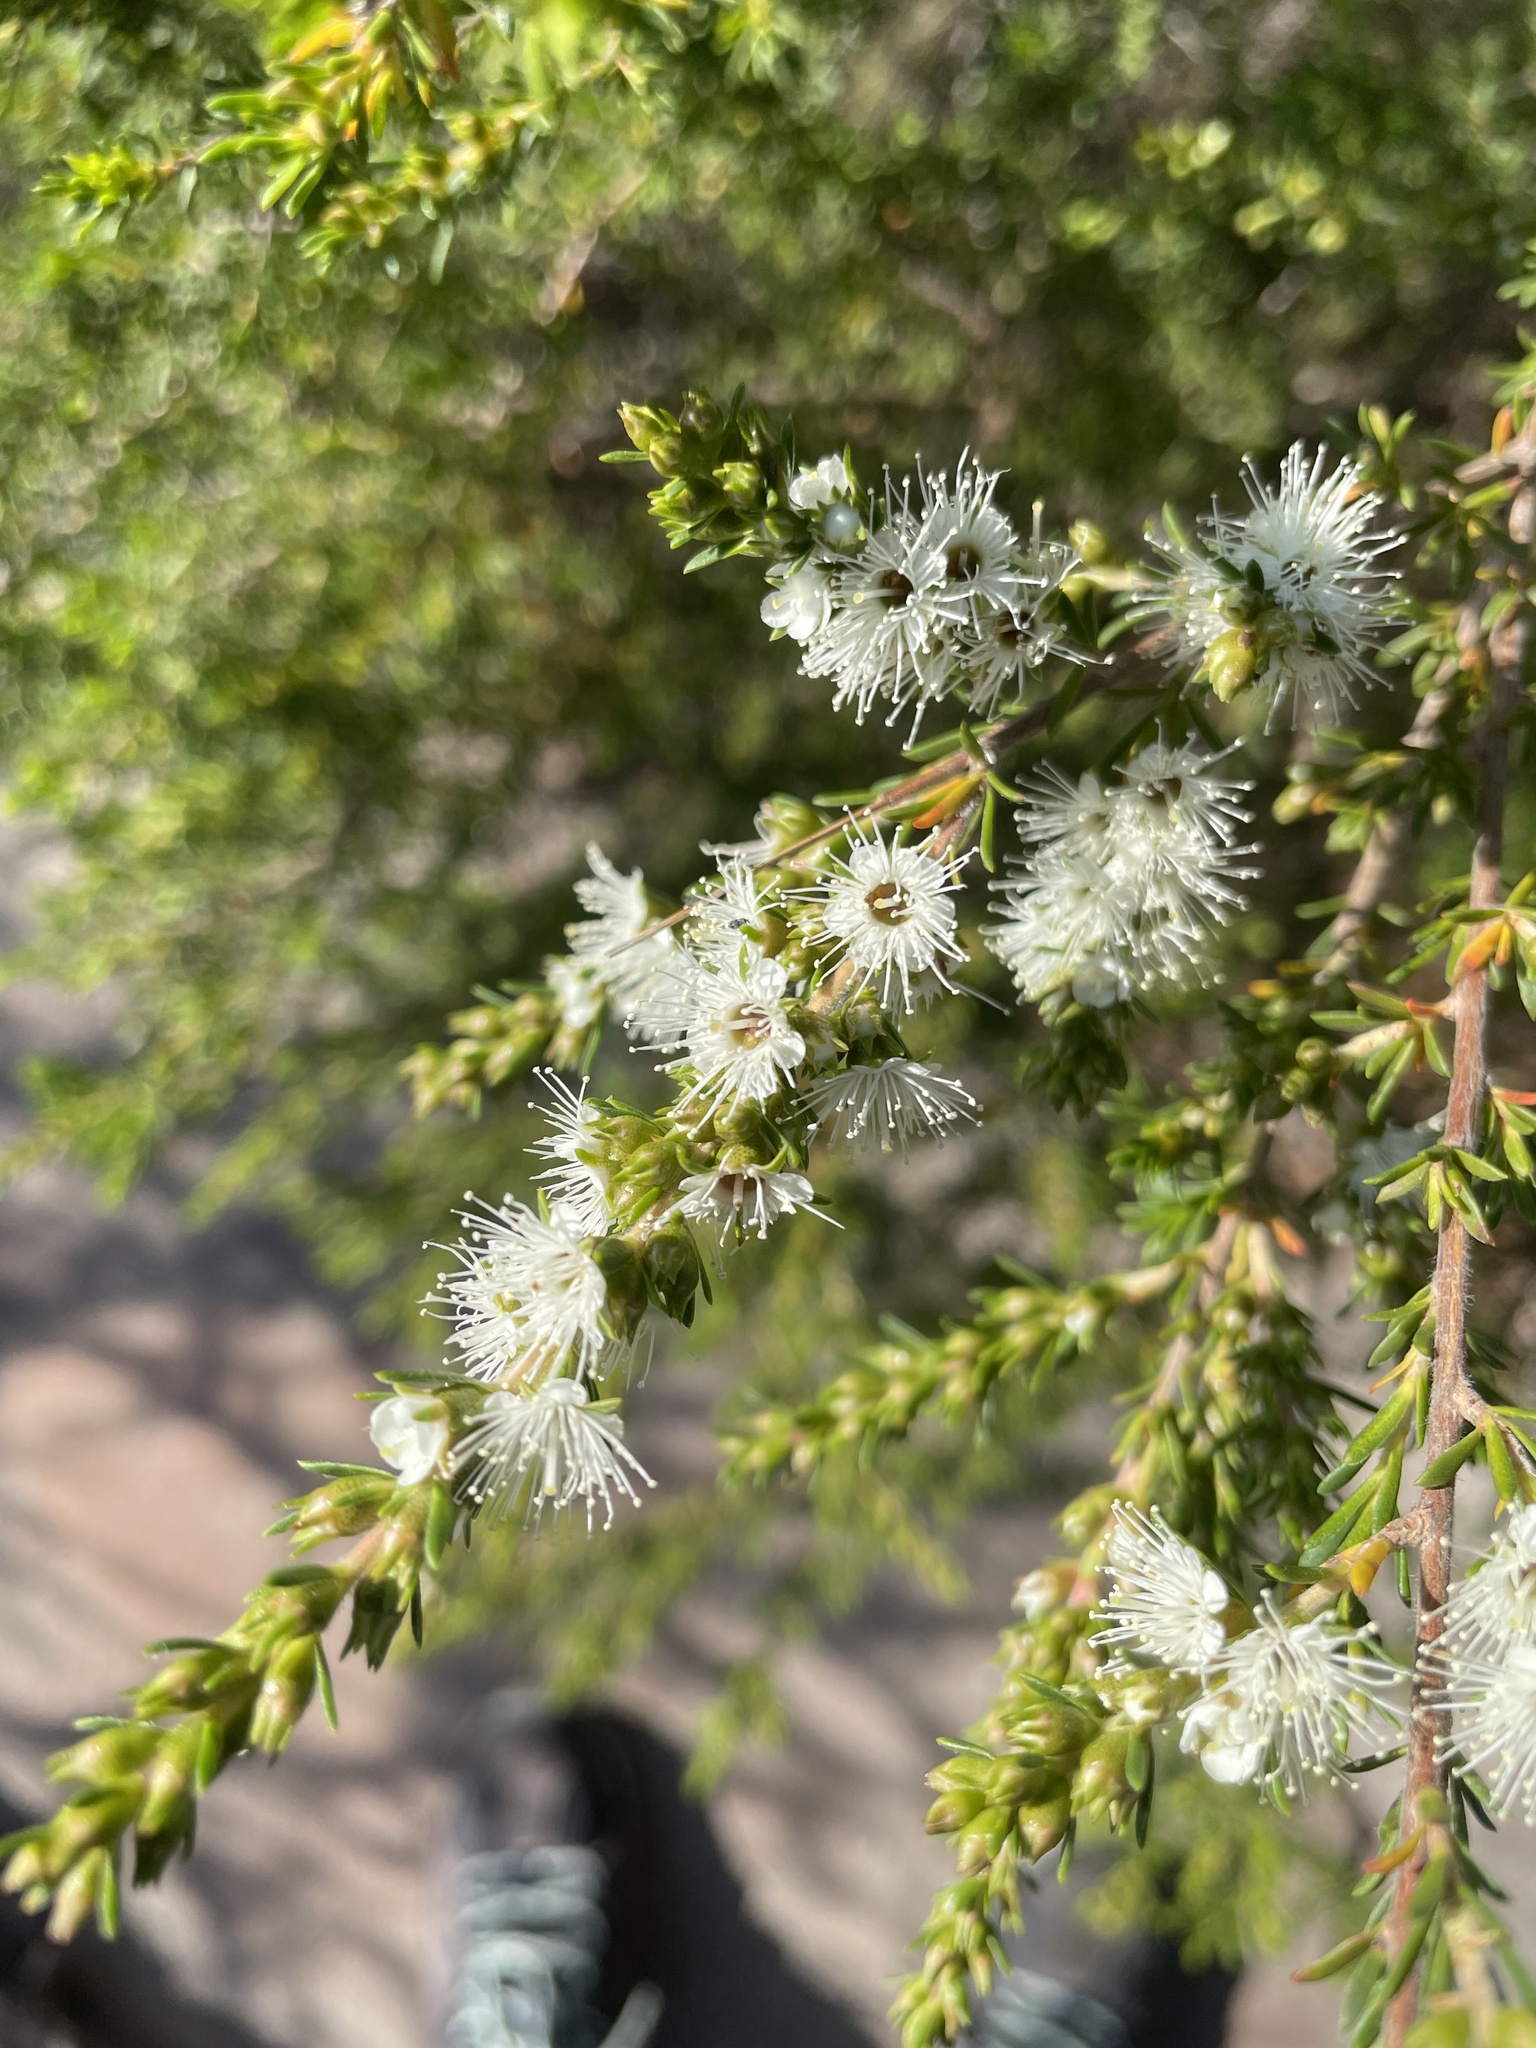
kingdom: Plantae
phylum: Tracheophyta
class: Magnoliopsida
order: Myrtales
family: Myrtaceae
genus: Kunzea
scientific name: Kunzea ambigua
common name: Tickbush
